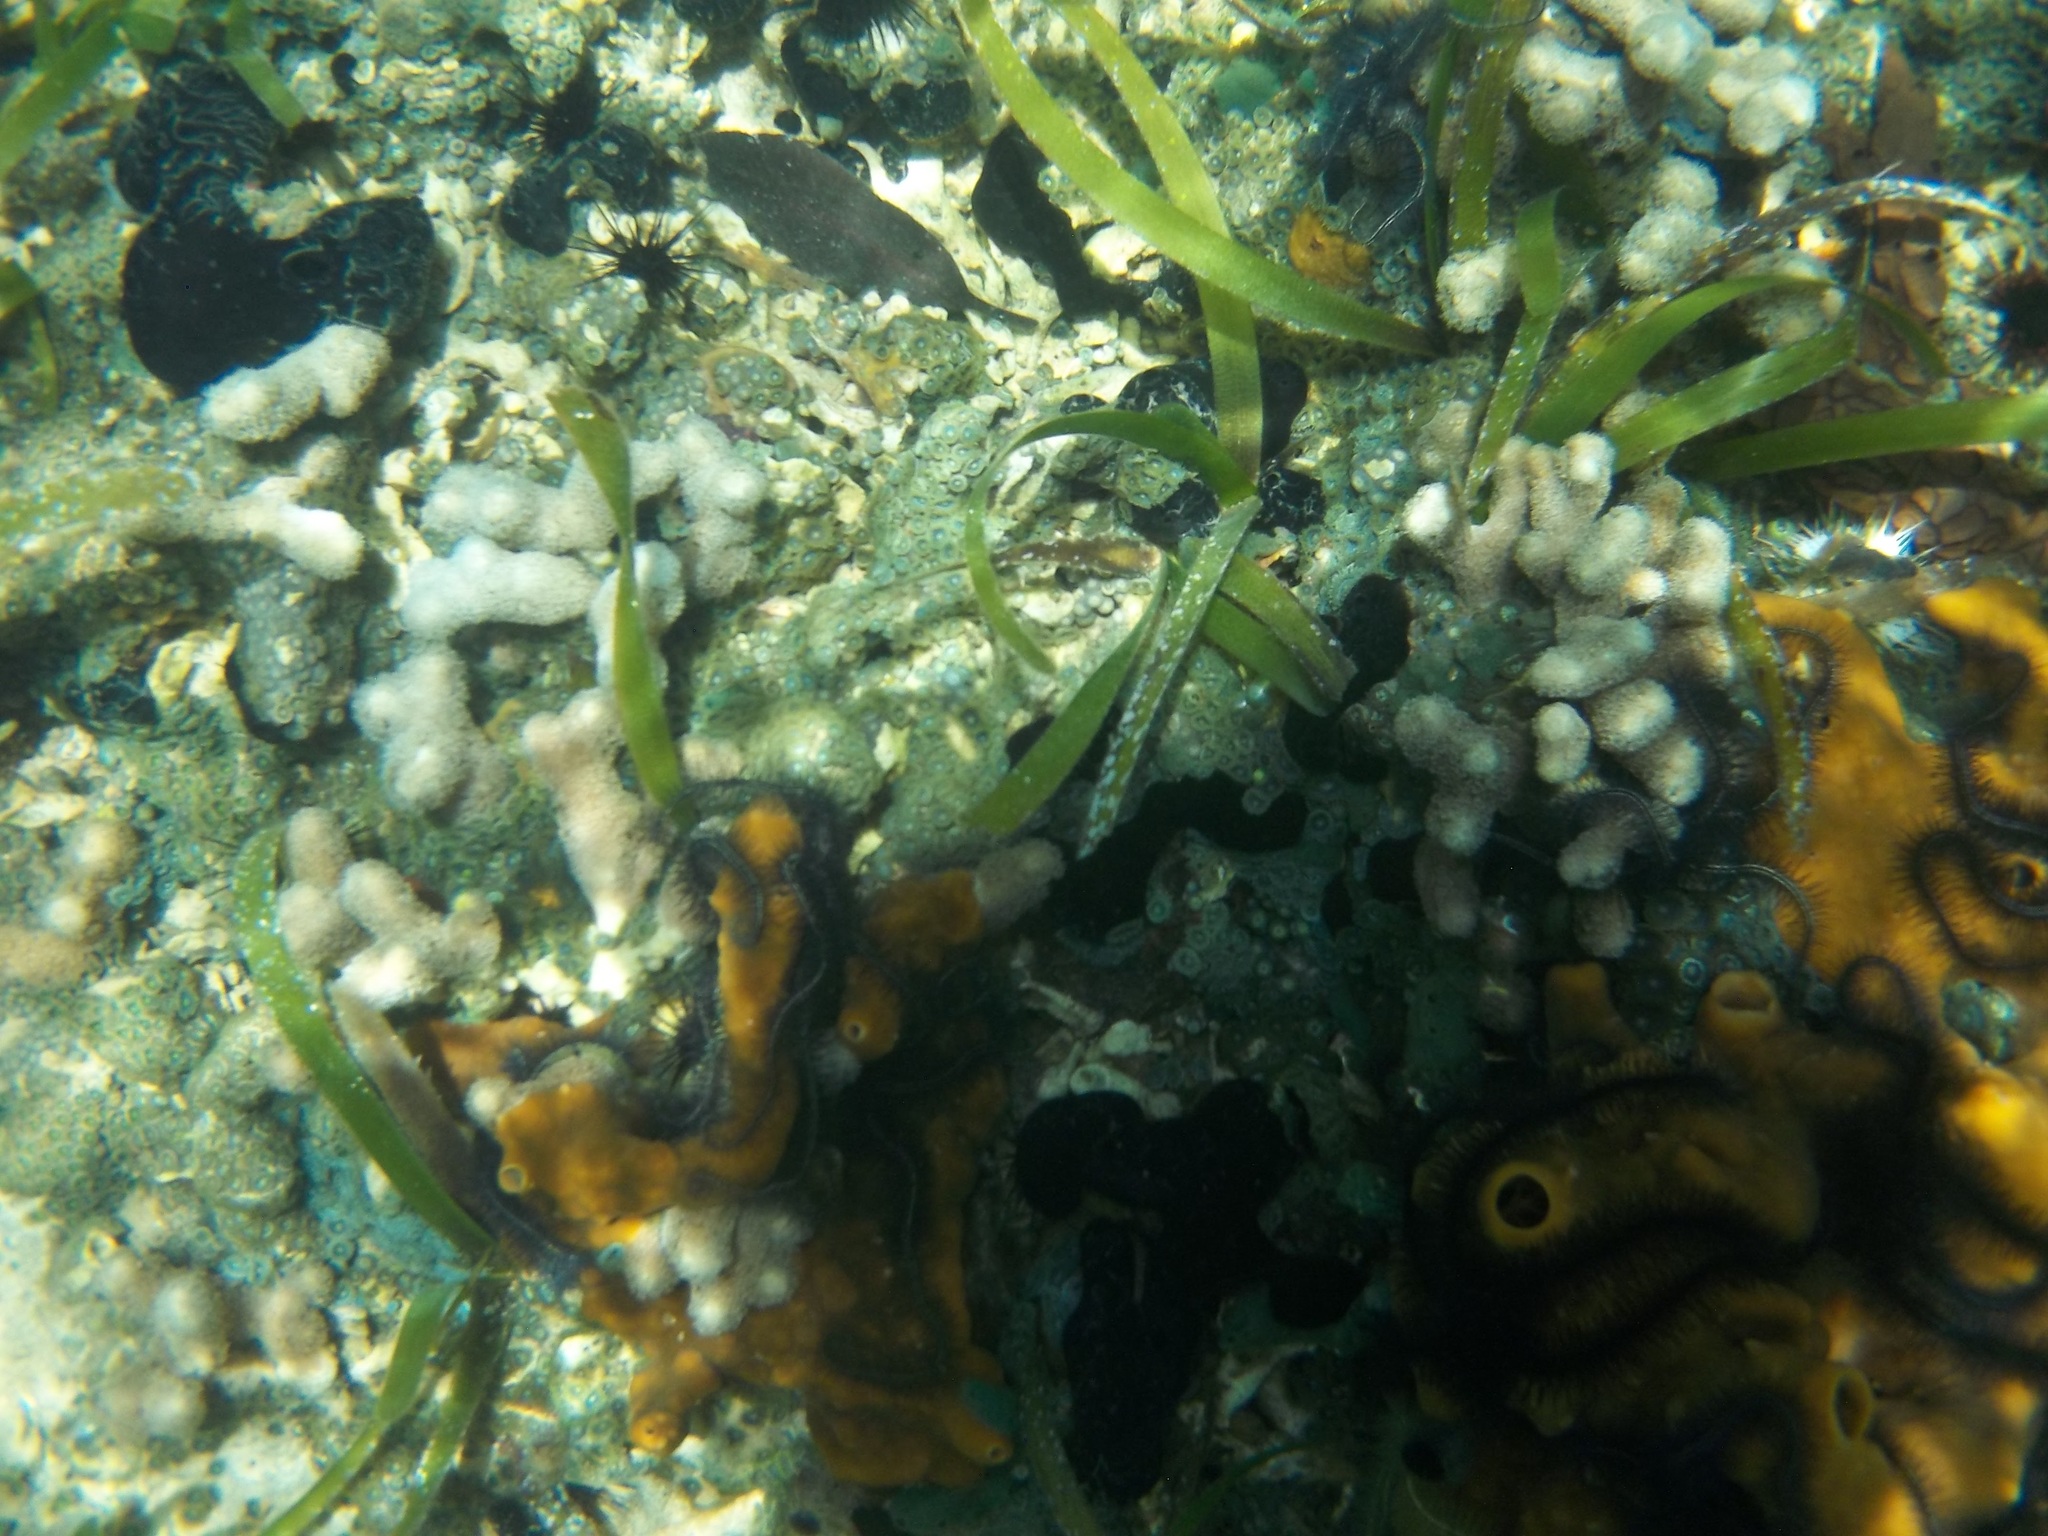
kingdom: Animalia
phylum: Cnidaria
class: Anthozoa
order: Zoantharia
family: Zoanthidae
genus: Zoanthus
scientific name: Zoanthus pulchellus
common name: Mat zoanthid
